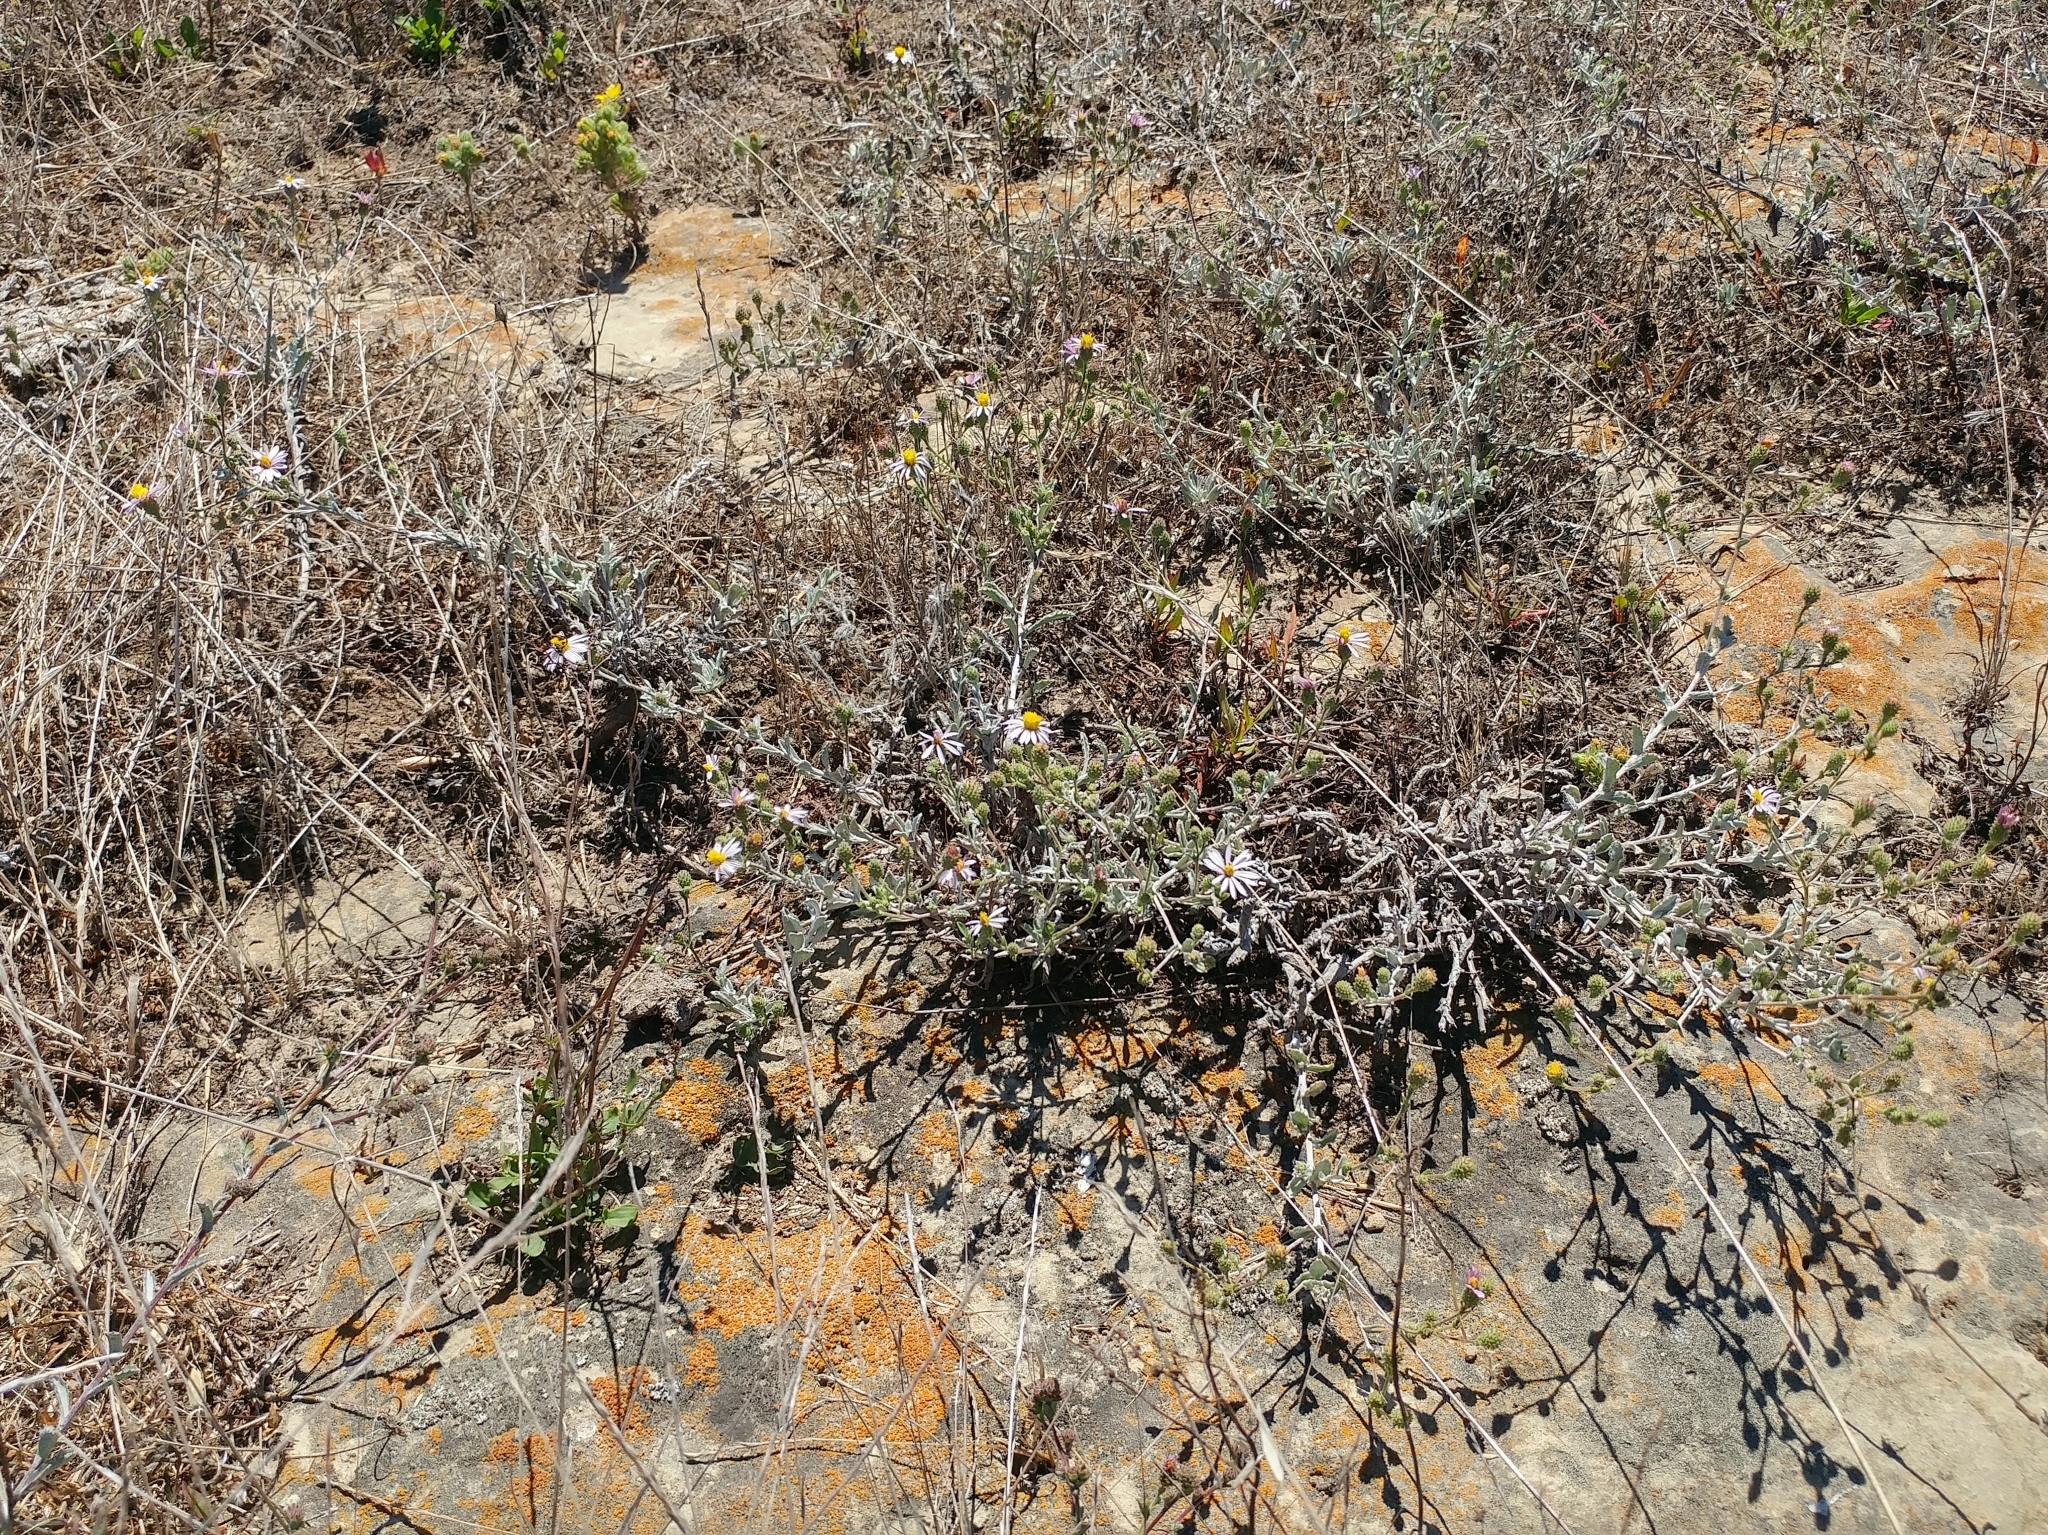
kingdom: Plantae
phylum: Tracheophyta
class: Magnoliopsida
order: Asterales
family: Asteraceae
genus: Corethrogyne
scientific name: Corethrogyne filaginifolia
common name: Sand-aster
